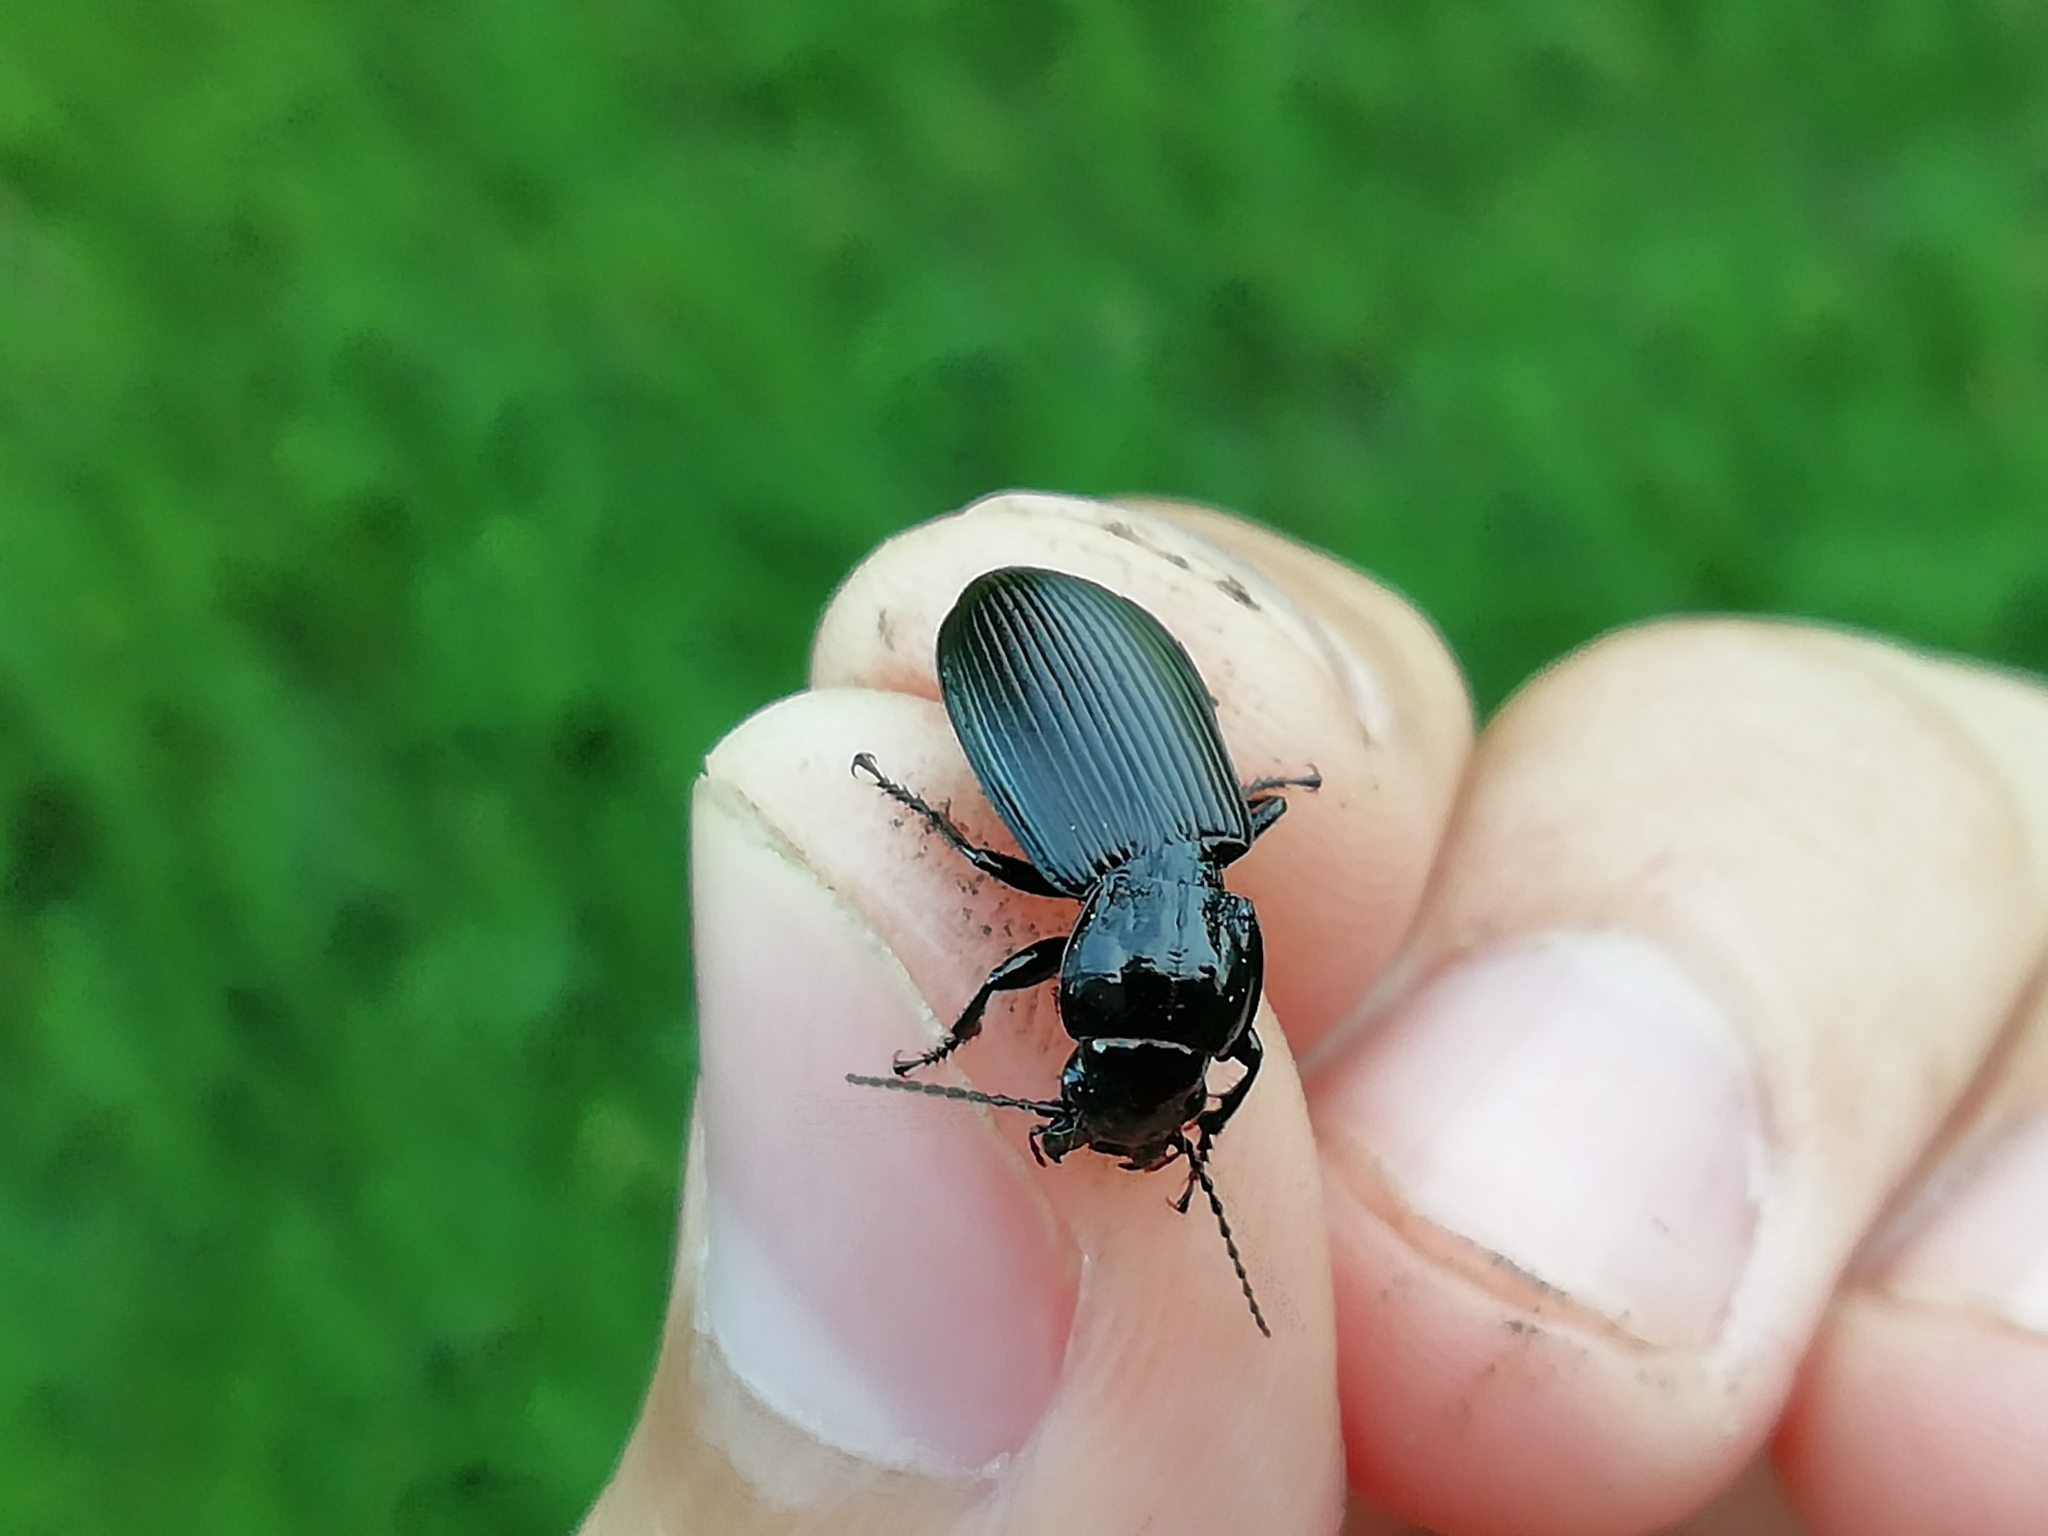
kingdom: Animalia
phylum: Arthropoda
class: Insecta
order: Coleoptera
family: Carabidae
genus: Pterostichus
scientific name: Pterostichus niger
